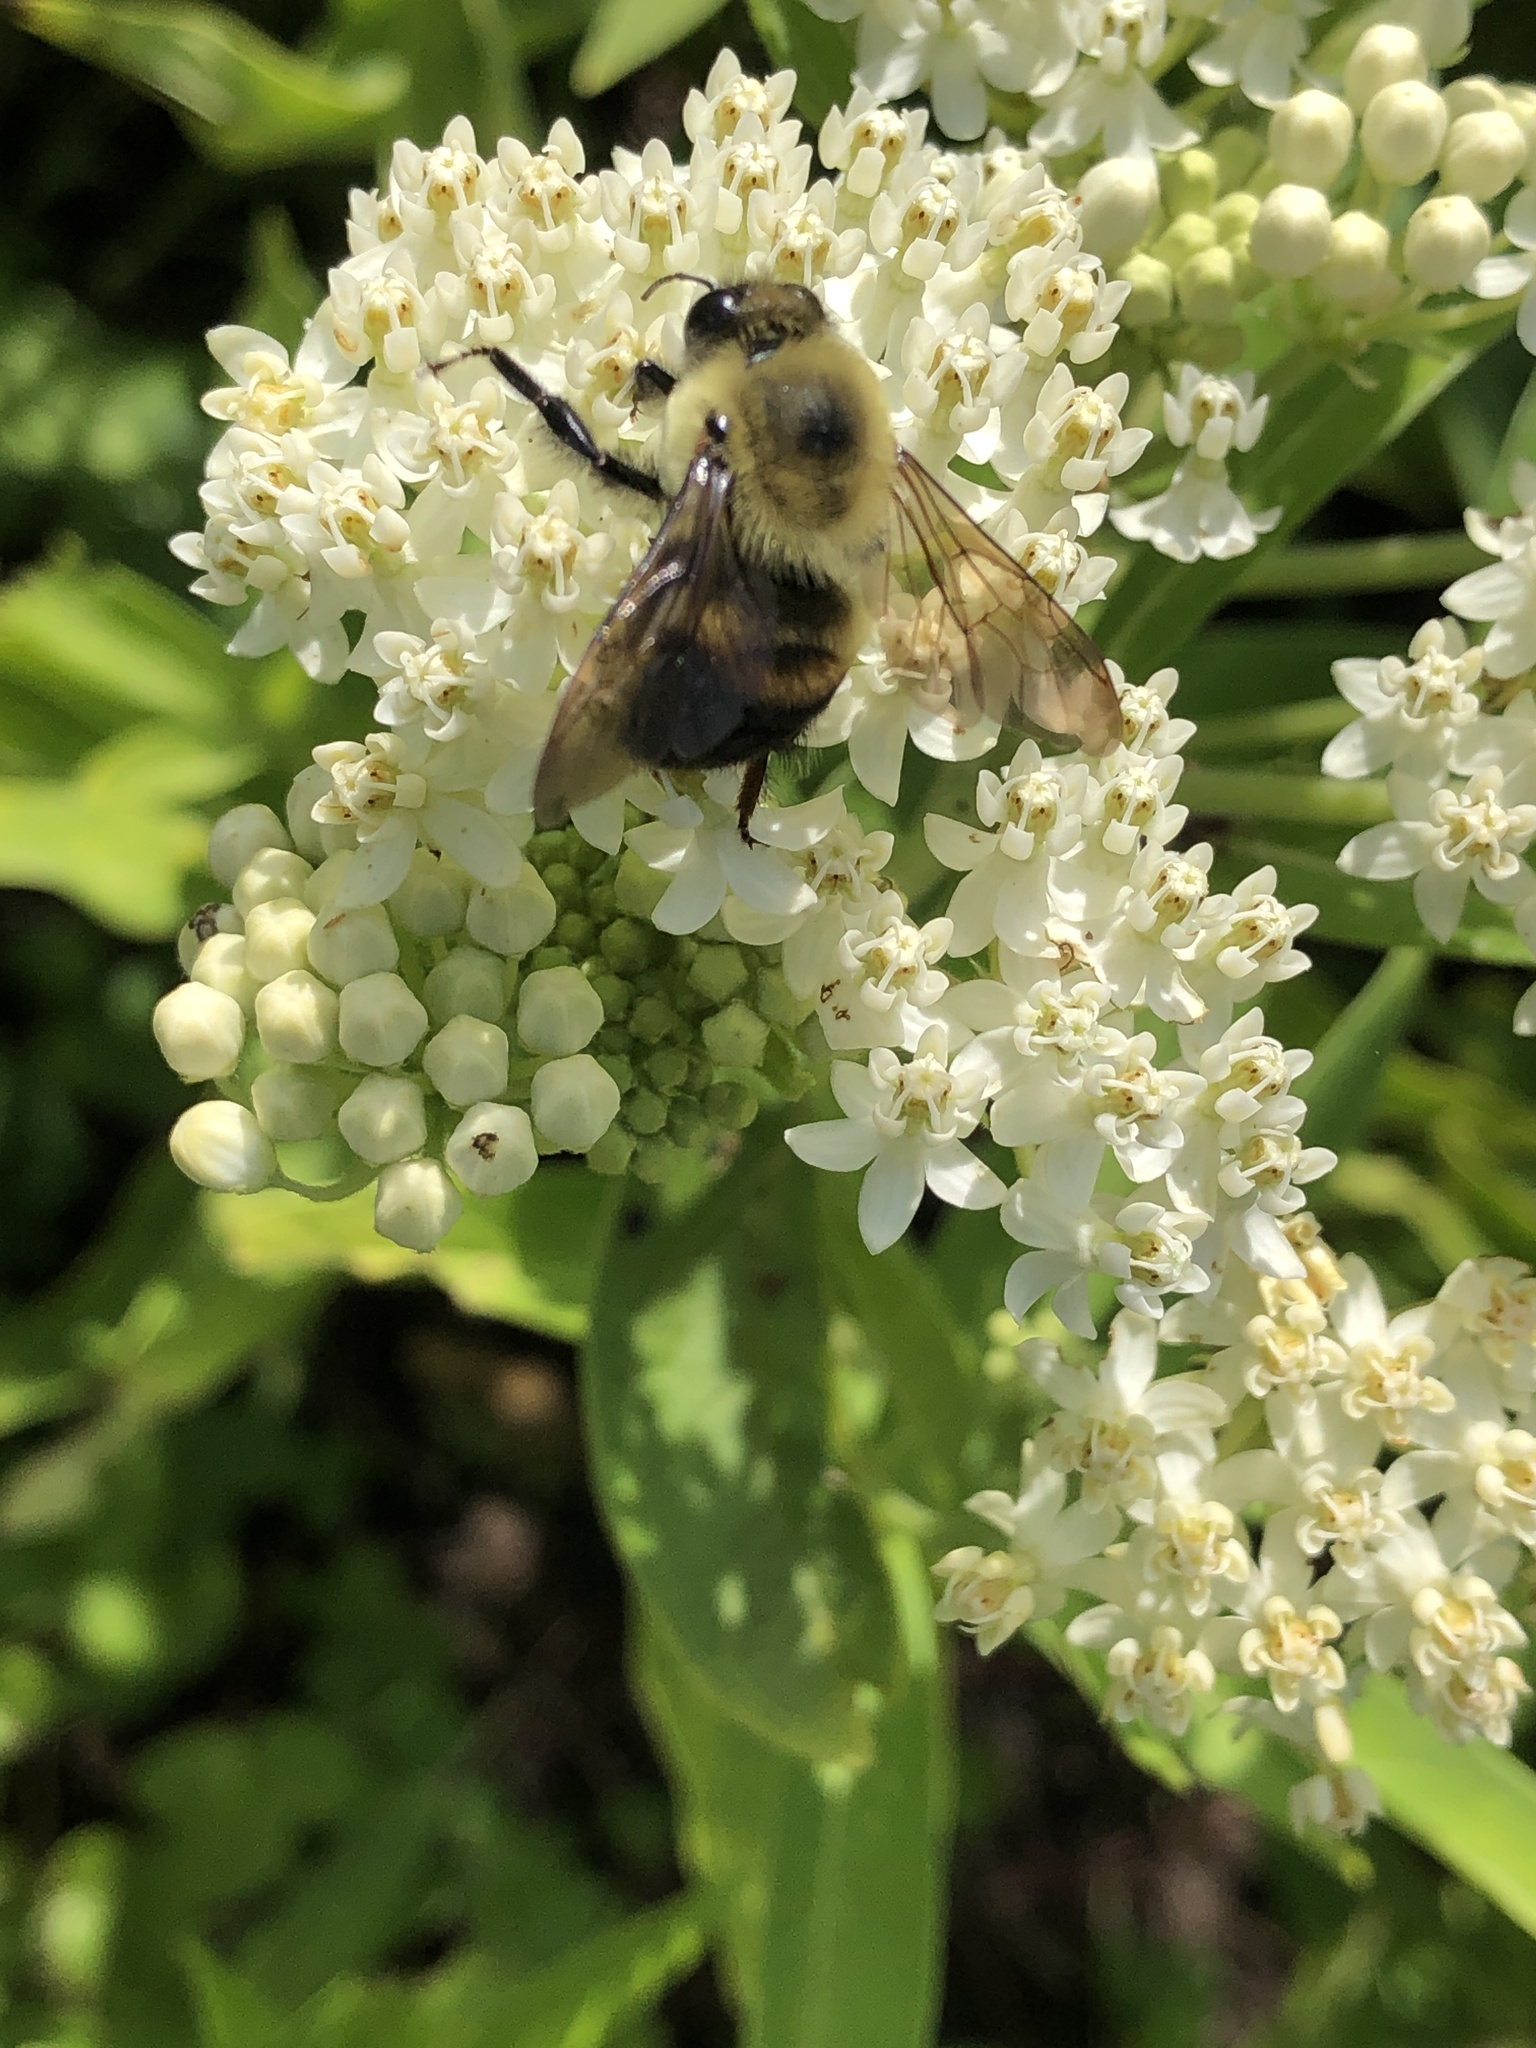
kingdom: Animalia
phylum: Arthropoda
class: Insecta
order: Hymenoptera
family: Apidae
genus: Bombus
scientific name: Bombus griseocollis
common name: Brown-belted bumble bee
